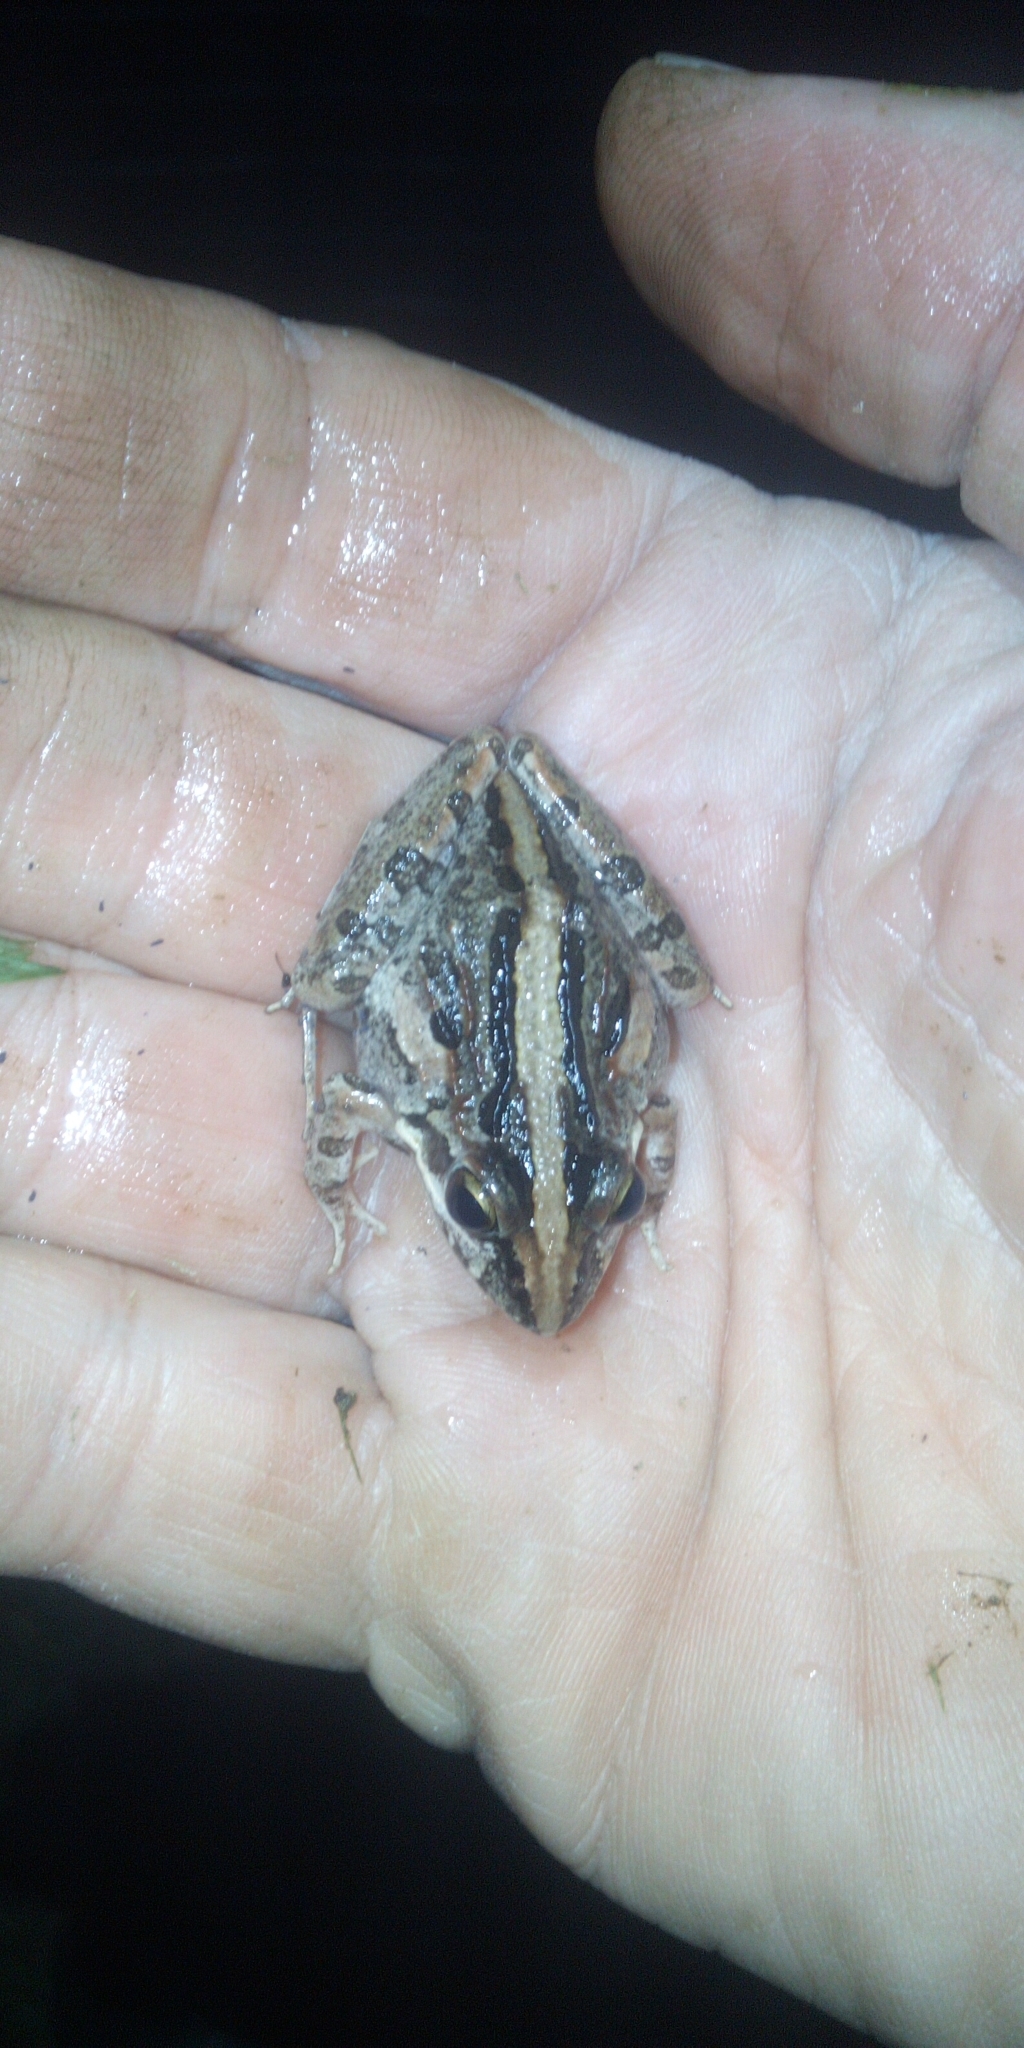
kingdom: Animalia
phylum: Chordata
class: Amphibia
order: Anura
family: Pyxicephalidae
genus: Strongylopus
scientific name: Strongylopus grayii
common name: Gray's stream frog
